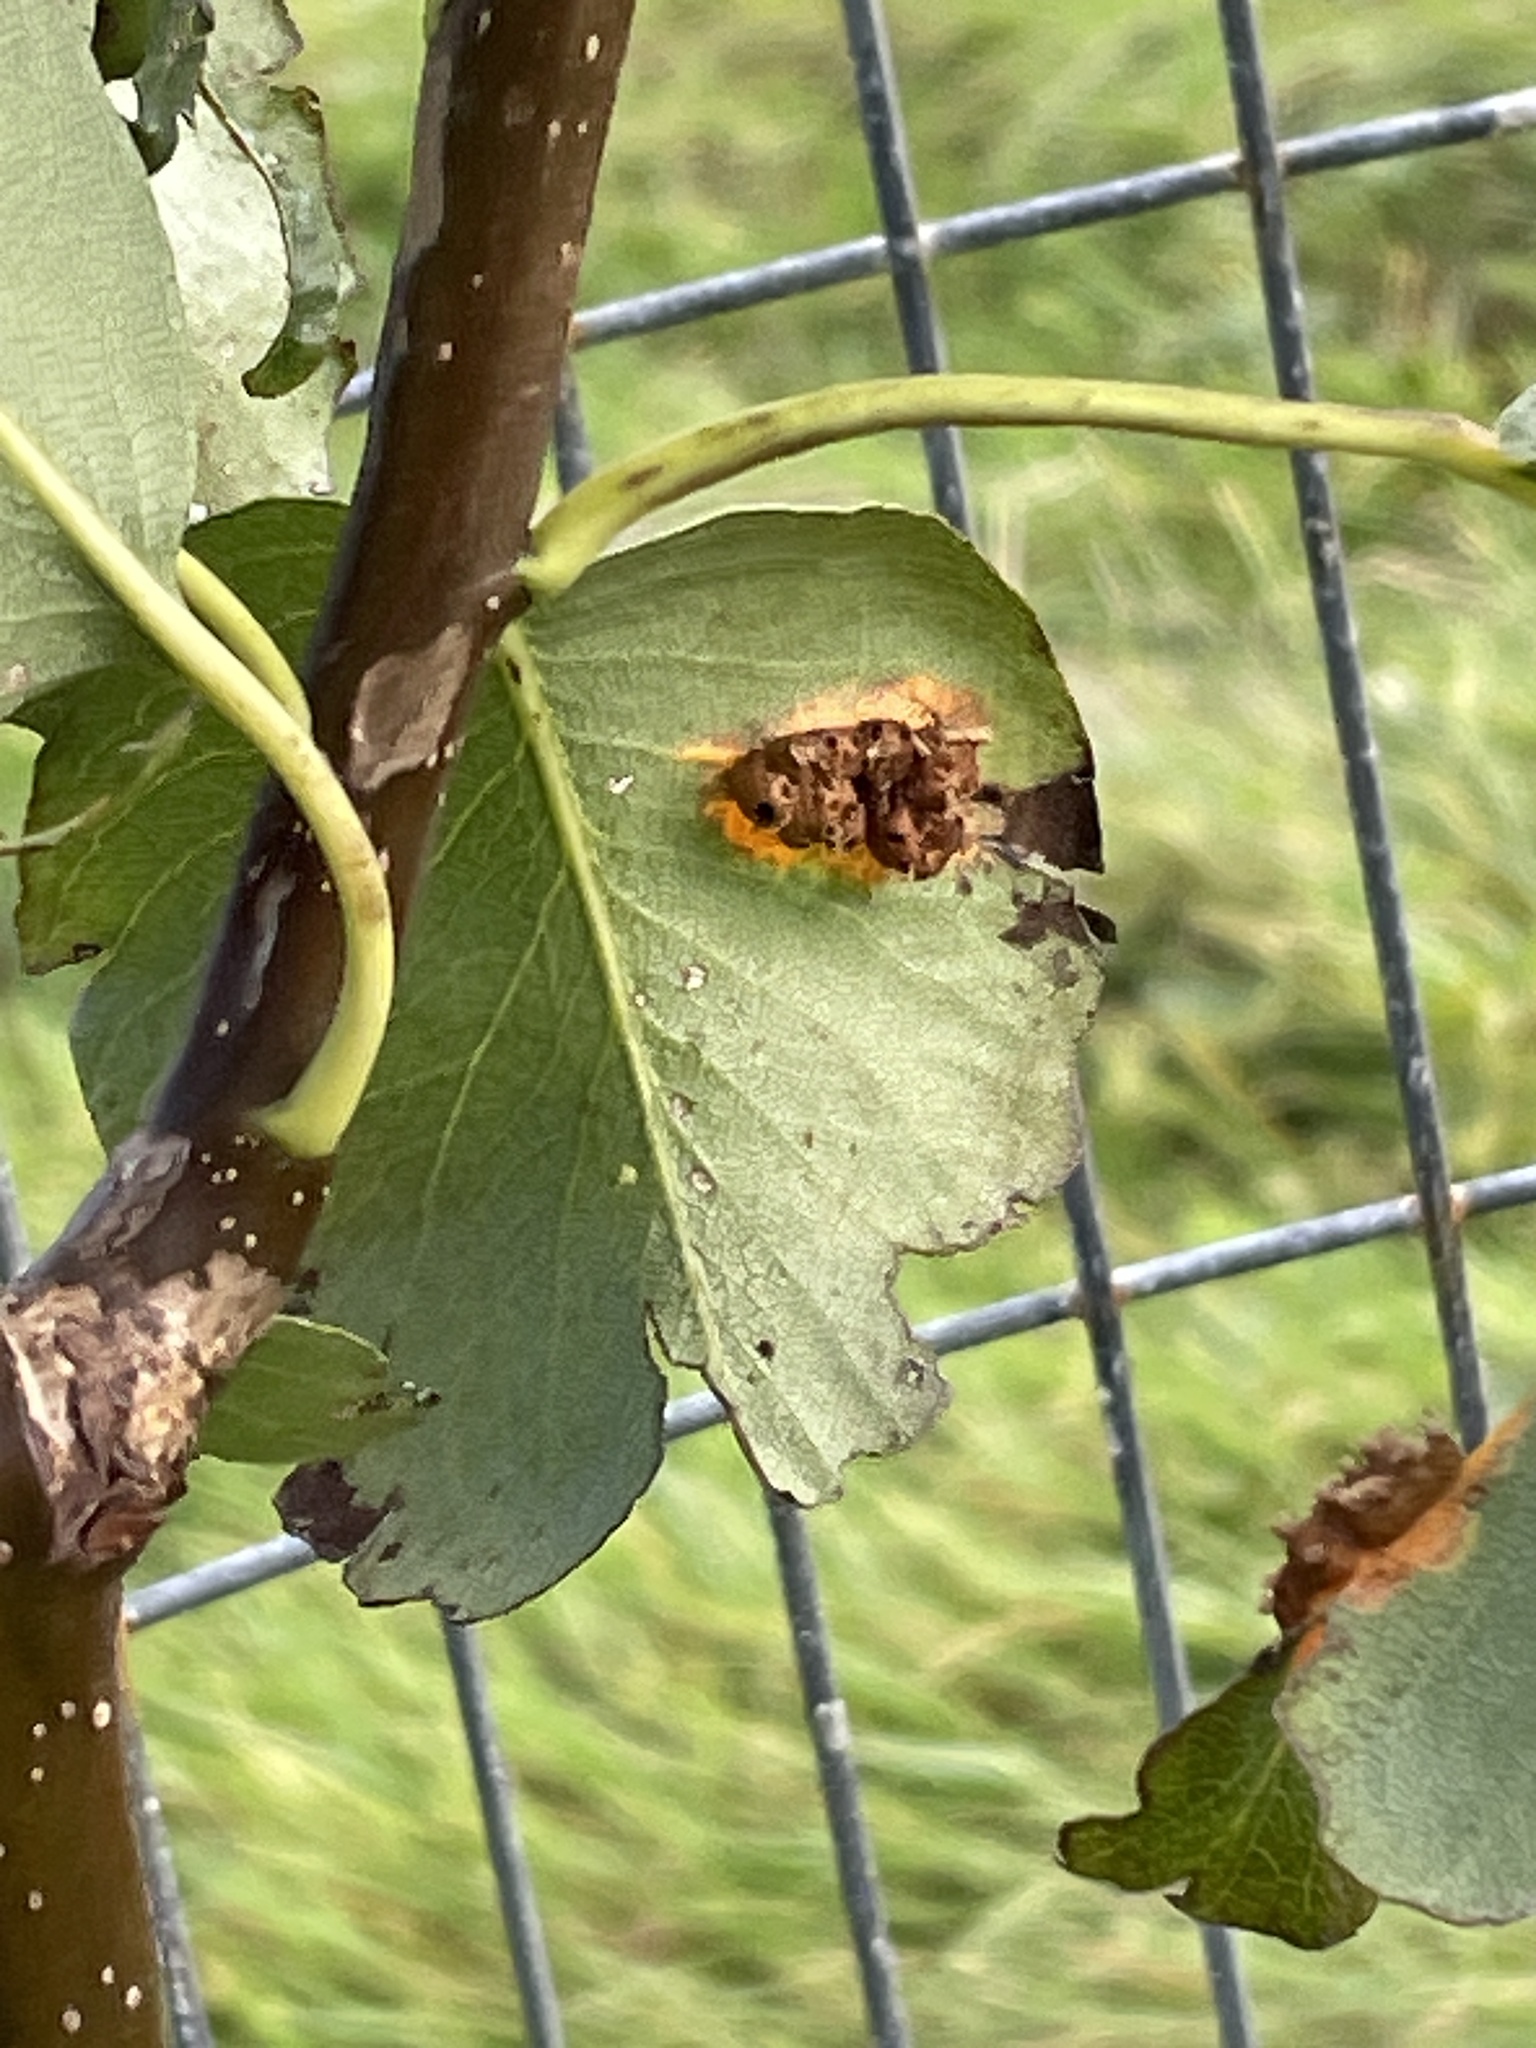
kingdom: Fungi
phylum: Basidiomycota
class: Pucciniomycetes
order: Pucciniales
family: Gymnosporangiaceae
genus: Gymnosporangium
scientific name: Gymnosporangium sabinae
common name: Pear trellis rust fungus
